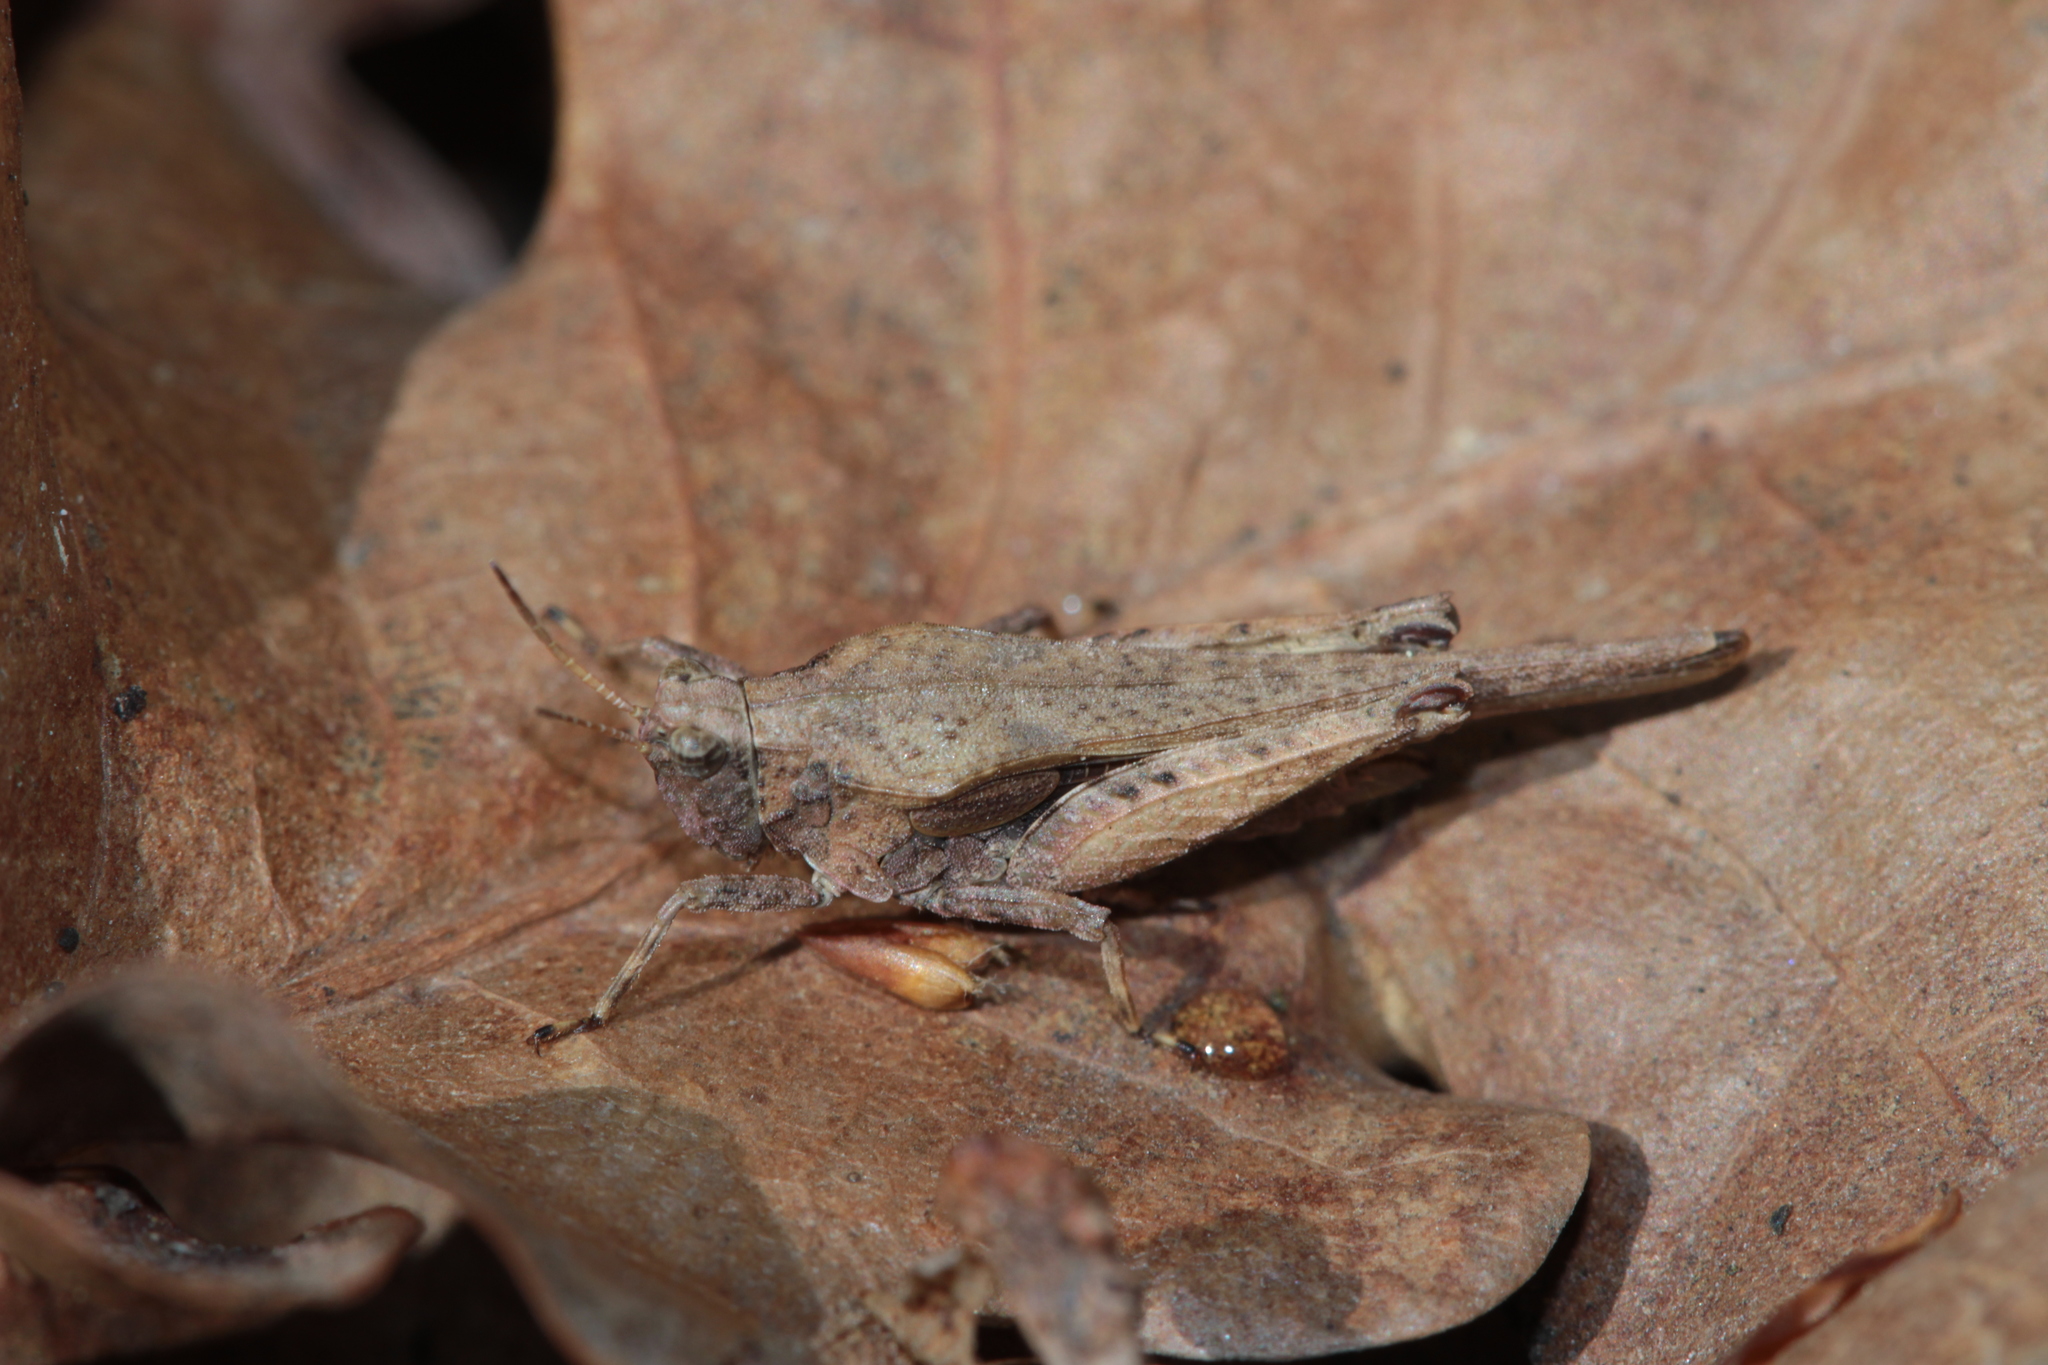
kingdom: Animalia
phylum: Arthropoda
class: Insecta
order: Orthoptera
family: Tetrigidae
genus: Tetrix
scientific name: Tetrix subulata
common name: Slender ground-hopper
